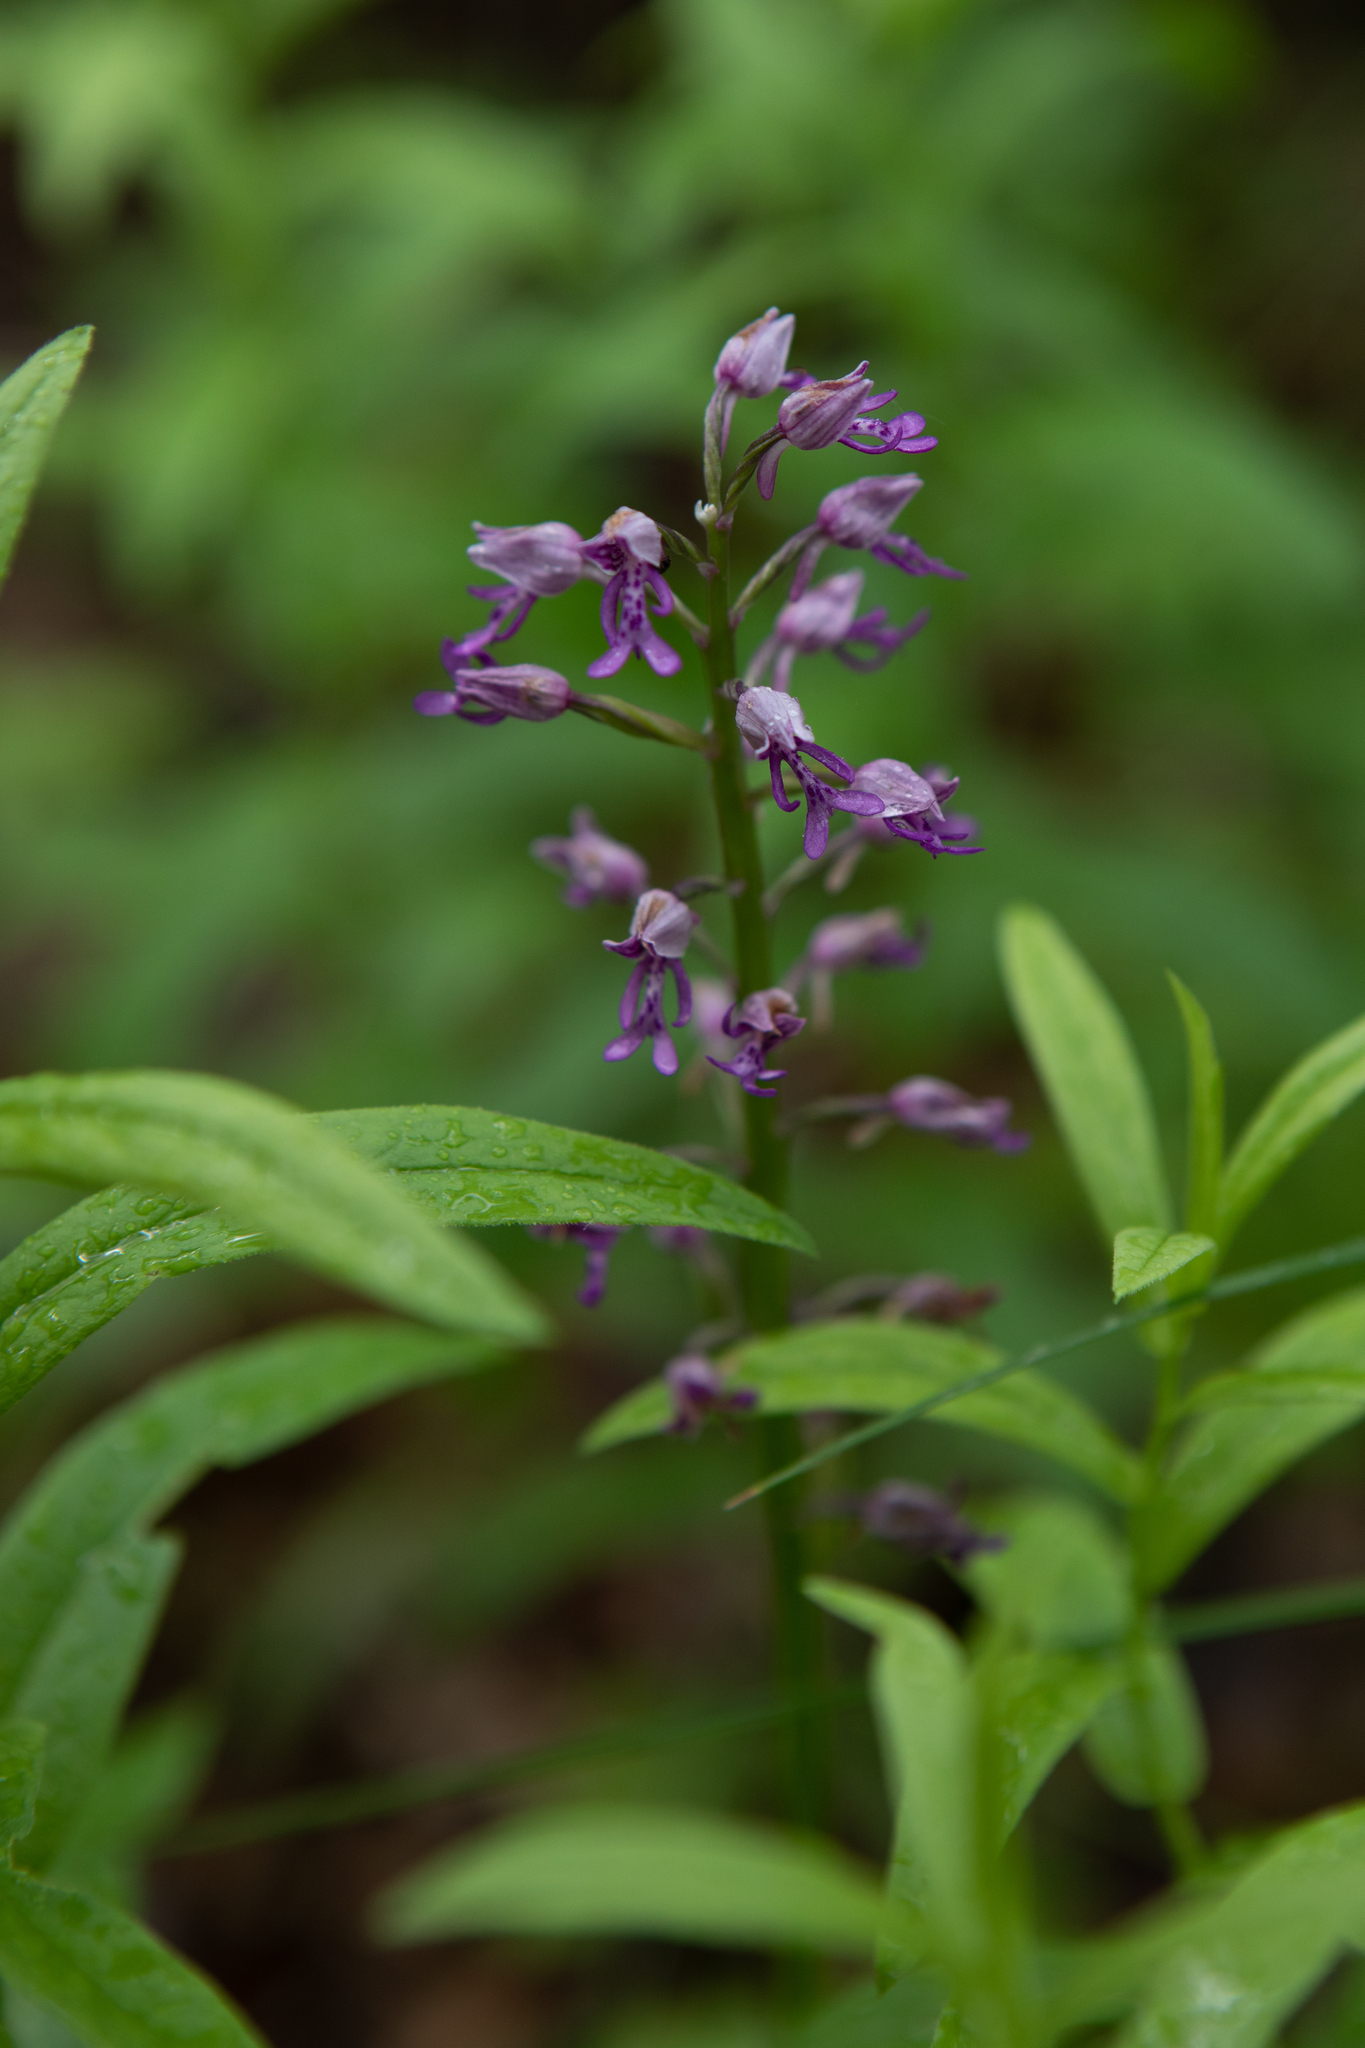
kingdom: Plantae
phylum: Tracheophyta
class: Liliopsida
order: Asparagales
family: Orchidaceae
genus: Orchis
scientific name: Orchis militaris
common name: Military orchid
